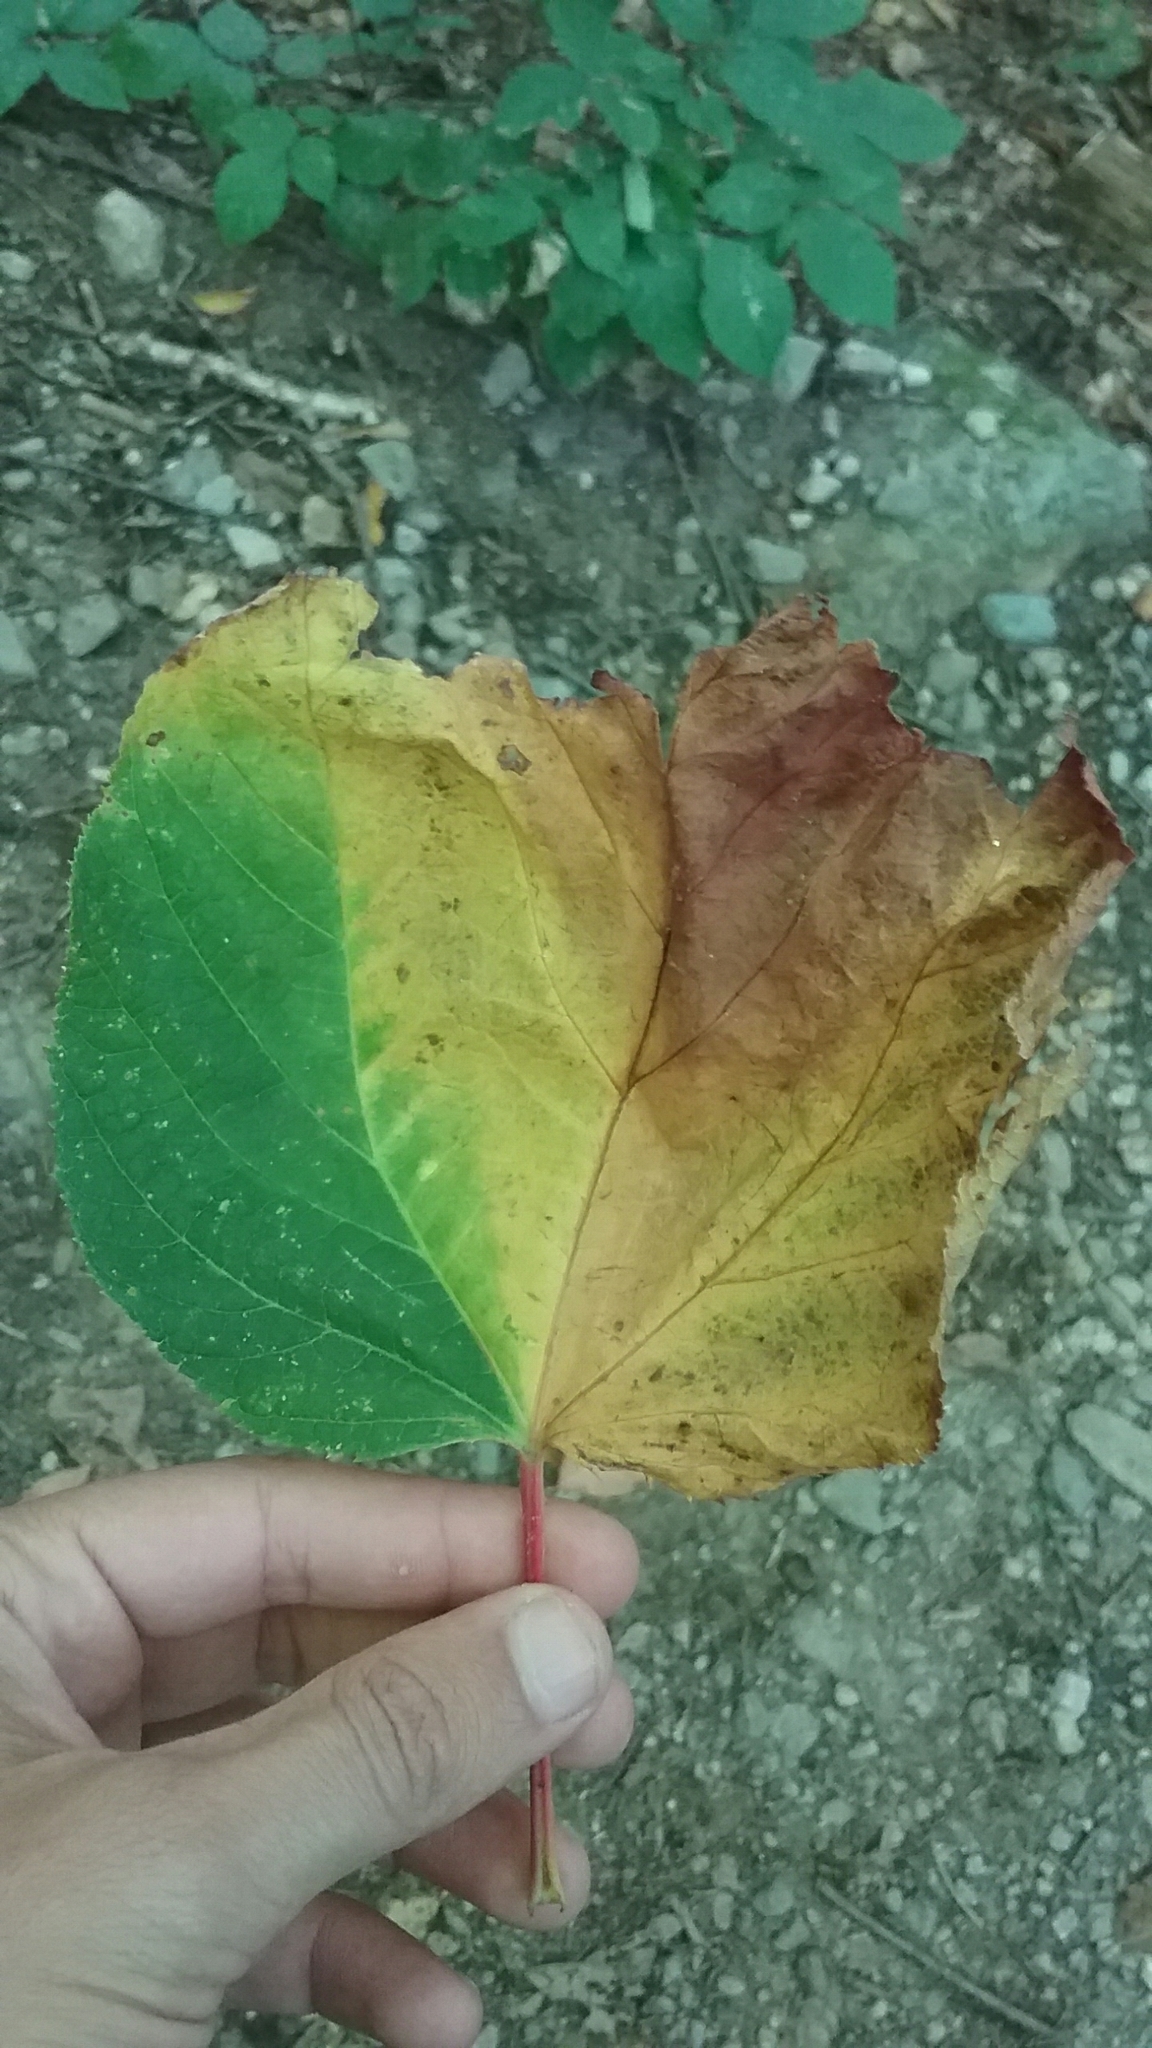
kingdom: Plantae
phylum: Tracheophyta
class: Magnoliopsida
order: Sapindales
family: Sapindaceae
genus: Acer
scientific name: Acer pensylvanicum
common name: Moosewood
